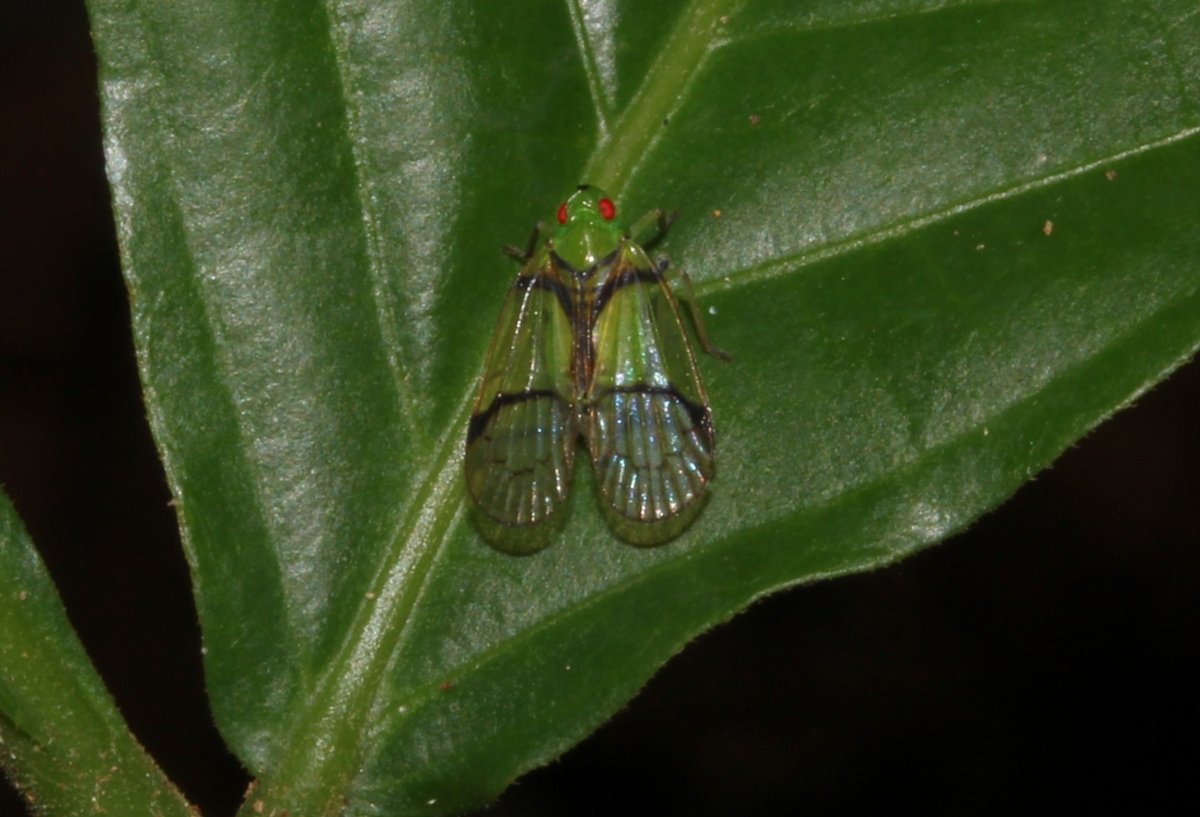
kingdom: Animalia
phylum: Arthropoda
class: Insecta
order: Hemiptera
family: Tropiduchidae
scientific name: Tropiduchidae
